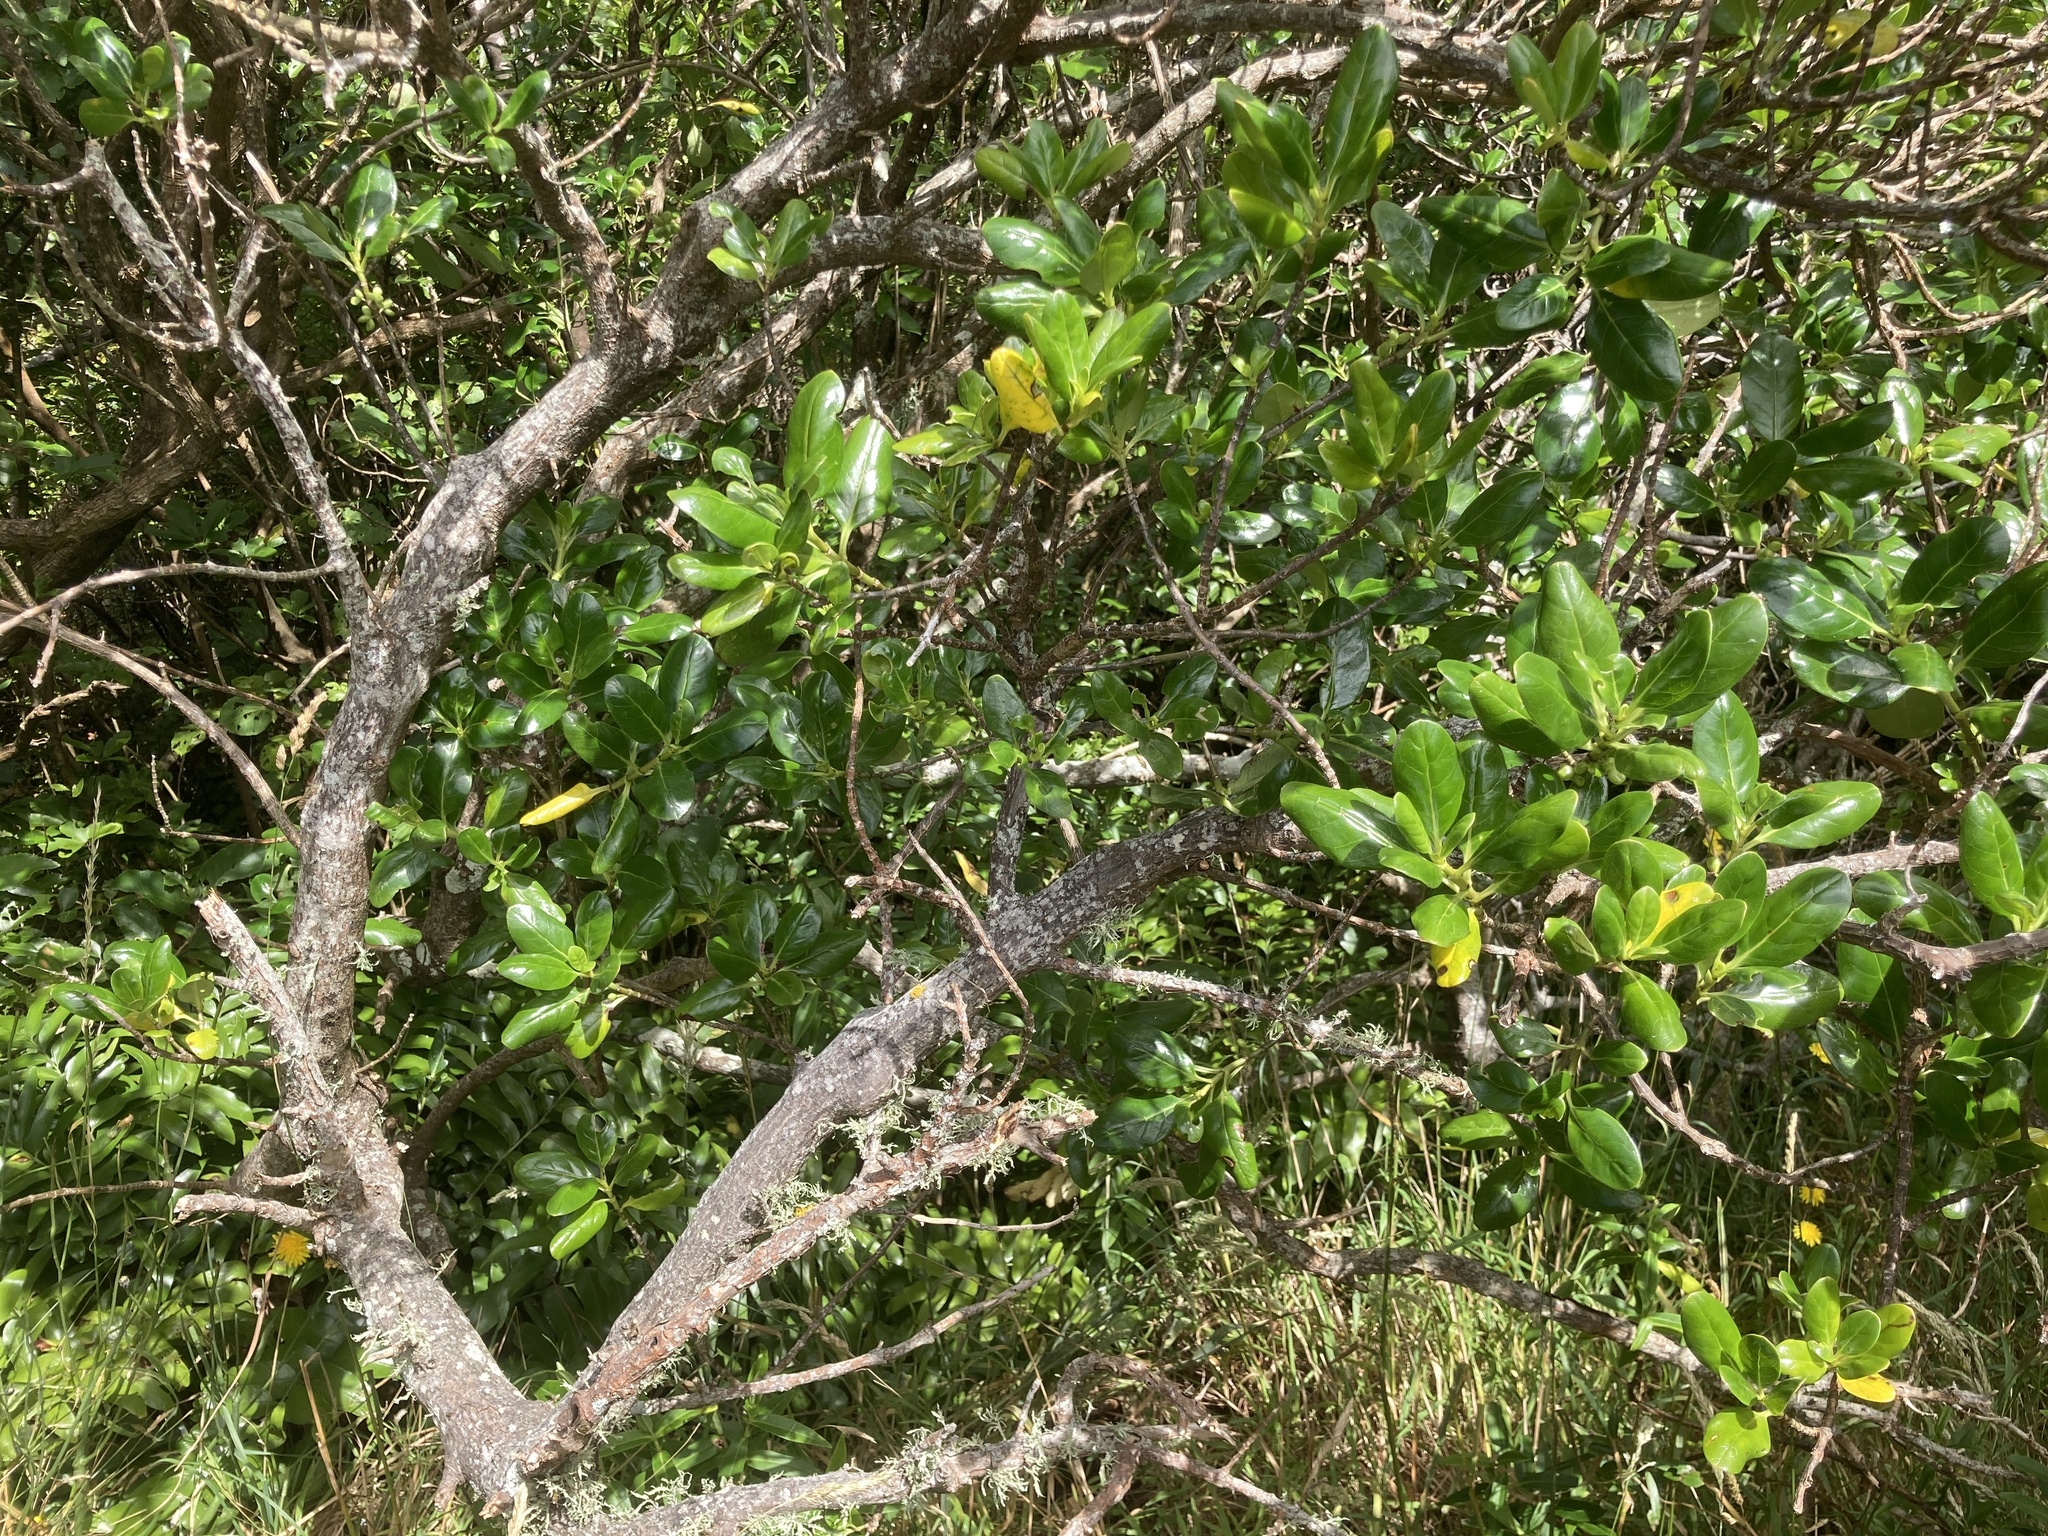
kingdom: Plantae
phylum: Tracheophyta
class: Magnoliopsida
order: Gentianales
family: Rubiaceae
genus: Coprosma
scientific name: Coprosma repens
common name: Tree bedstraw
